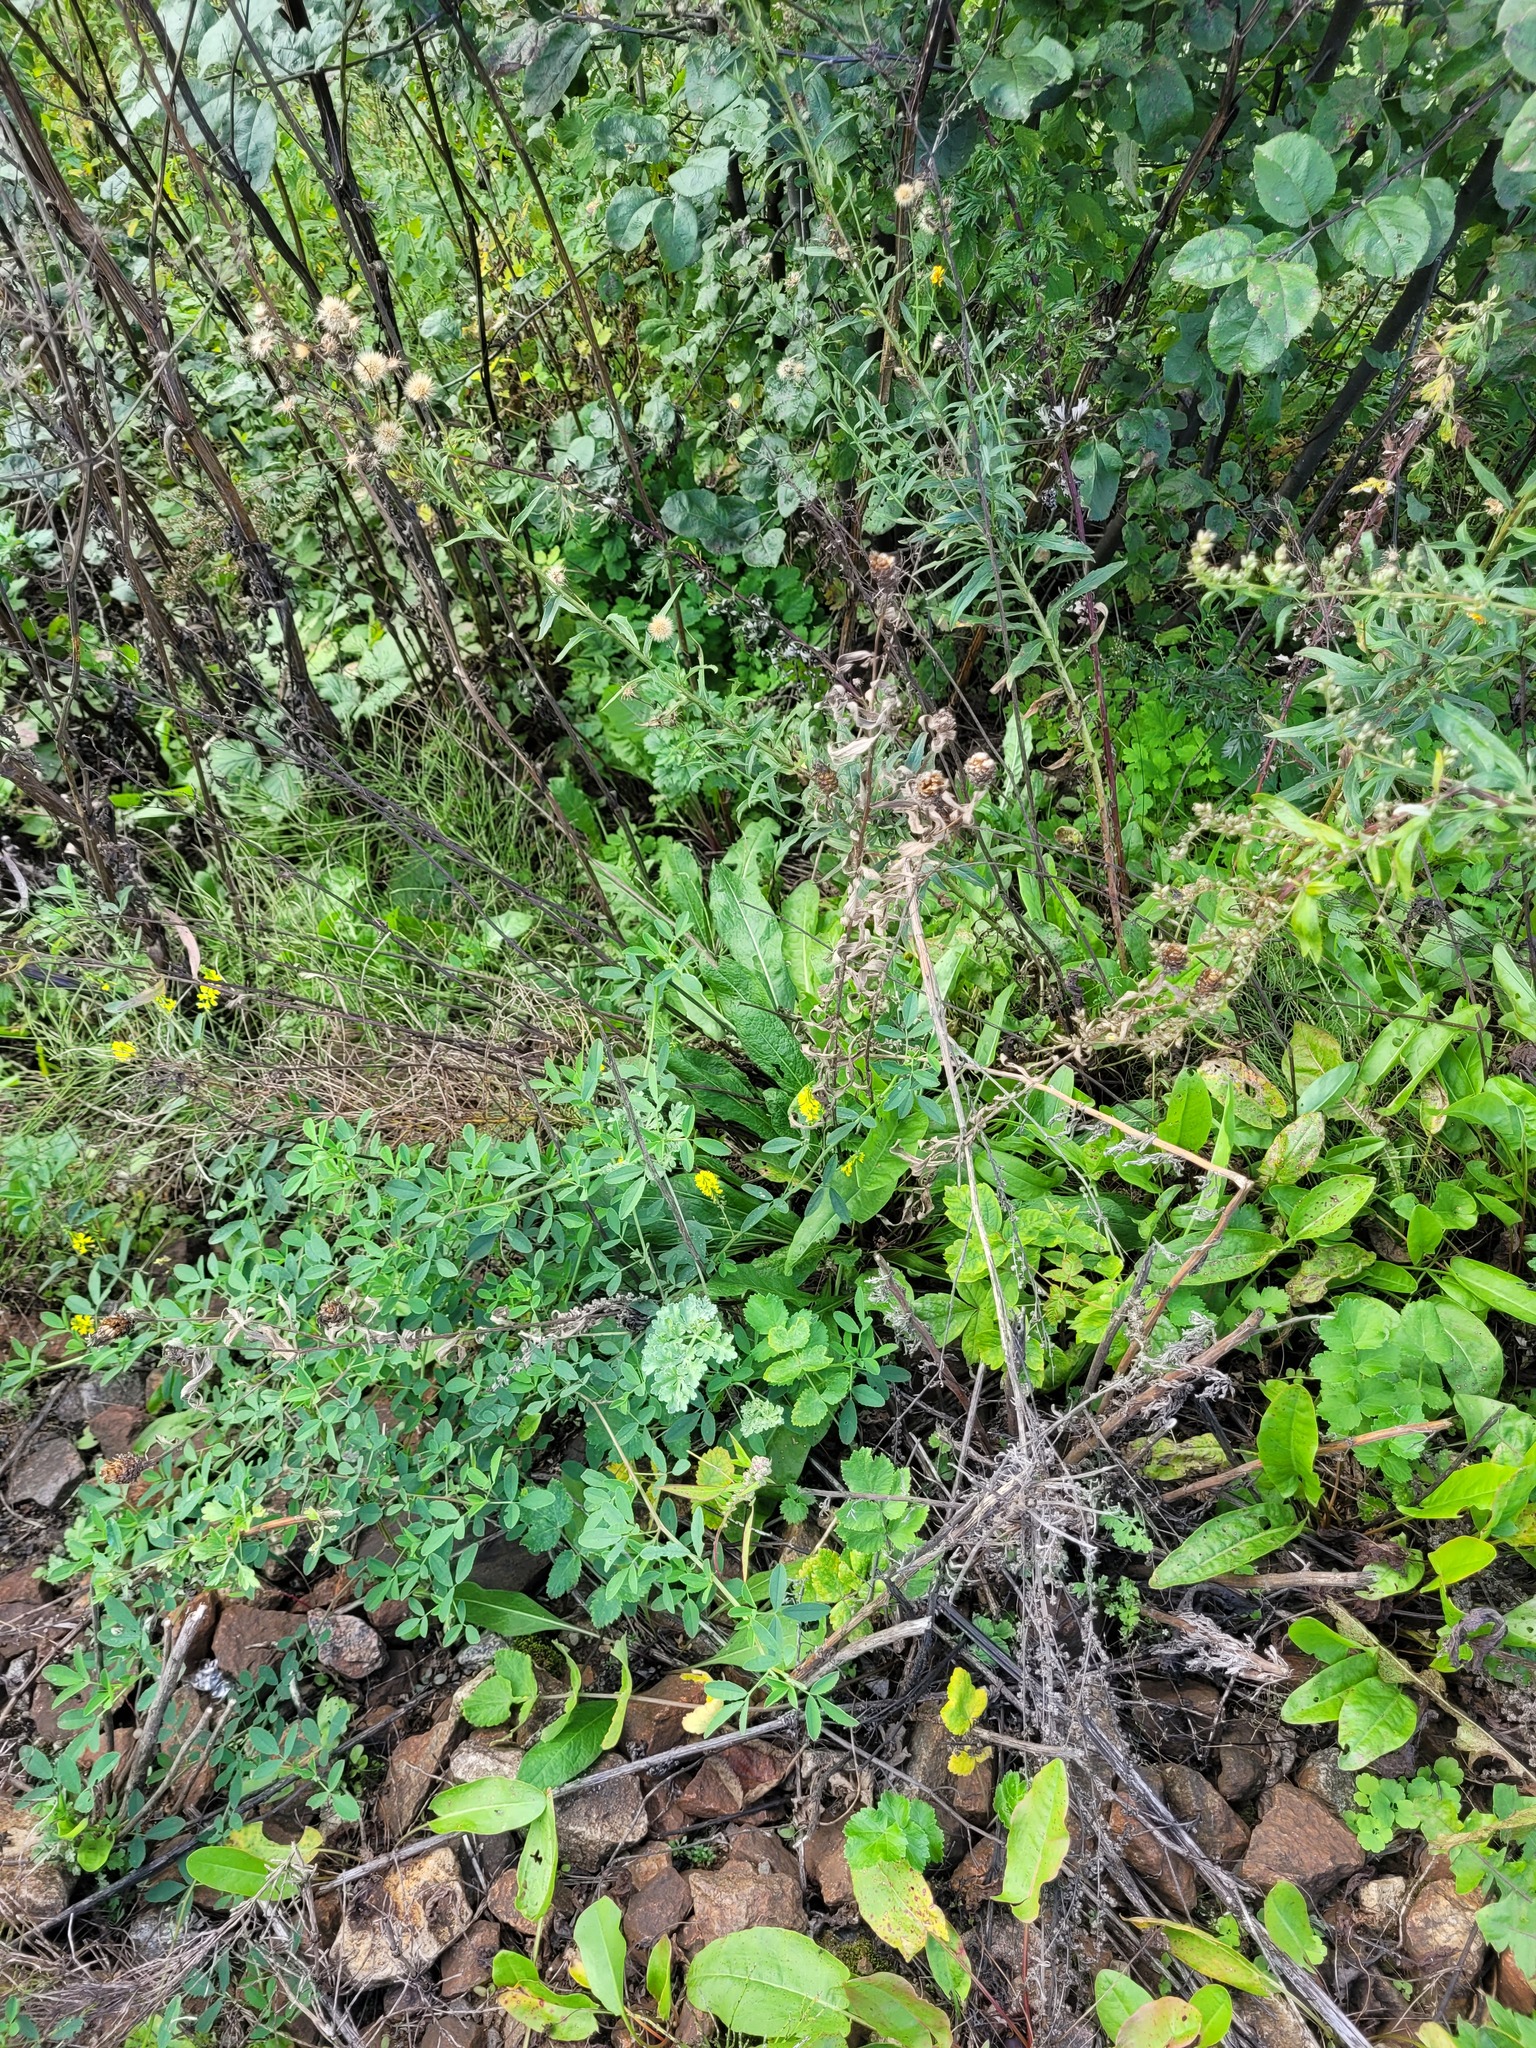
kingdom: Plantae
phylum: Tracheophyta
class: Magnoliopsida
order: Fabales
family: Fabaceae
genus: Melilotus
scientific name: Melilotus officinalis
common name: Sweetclover
